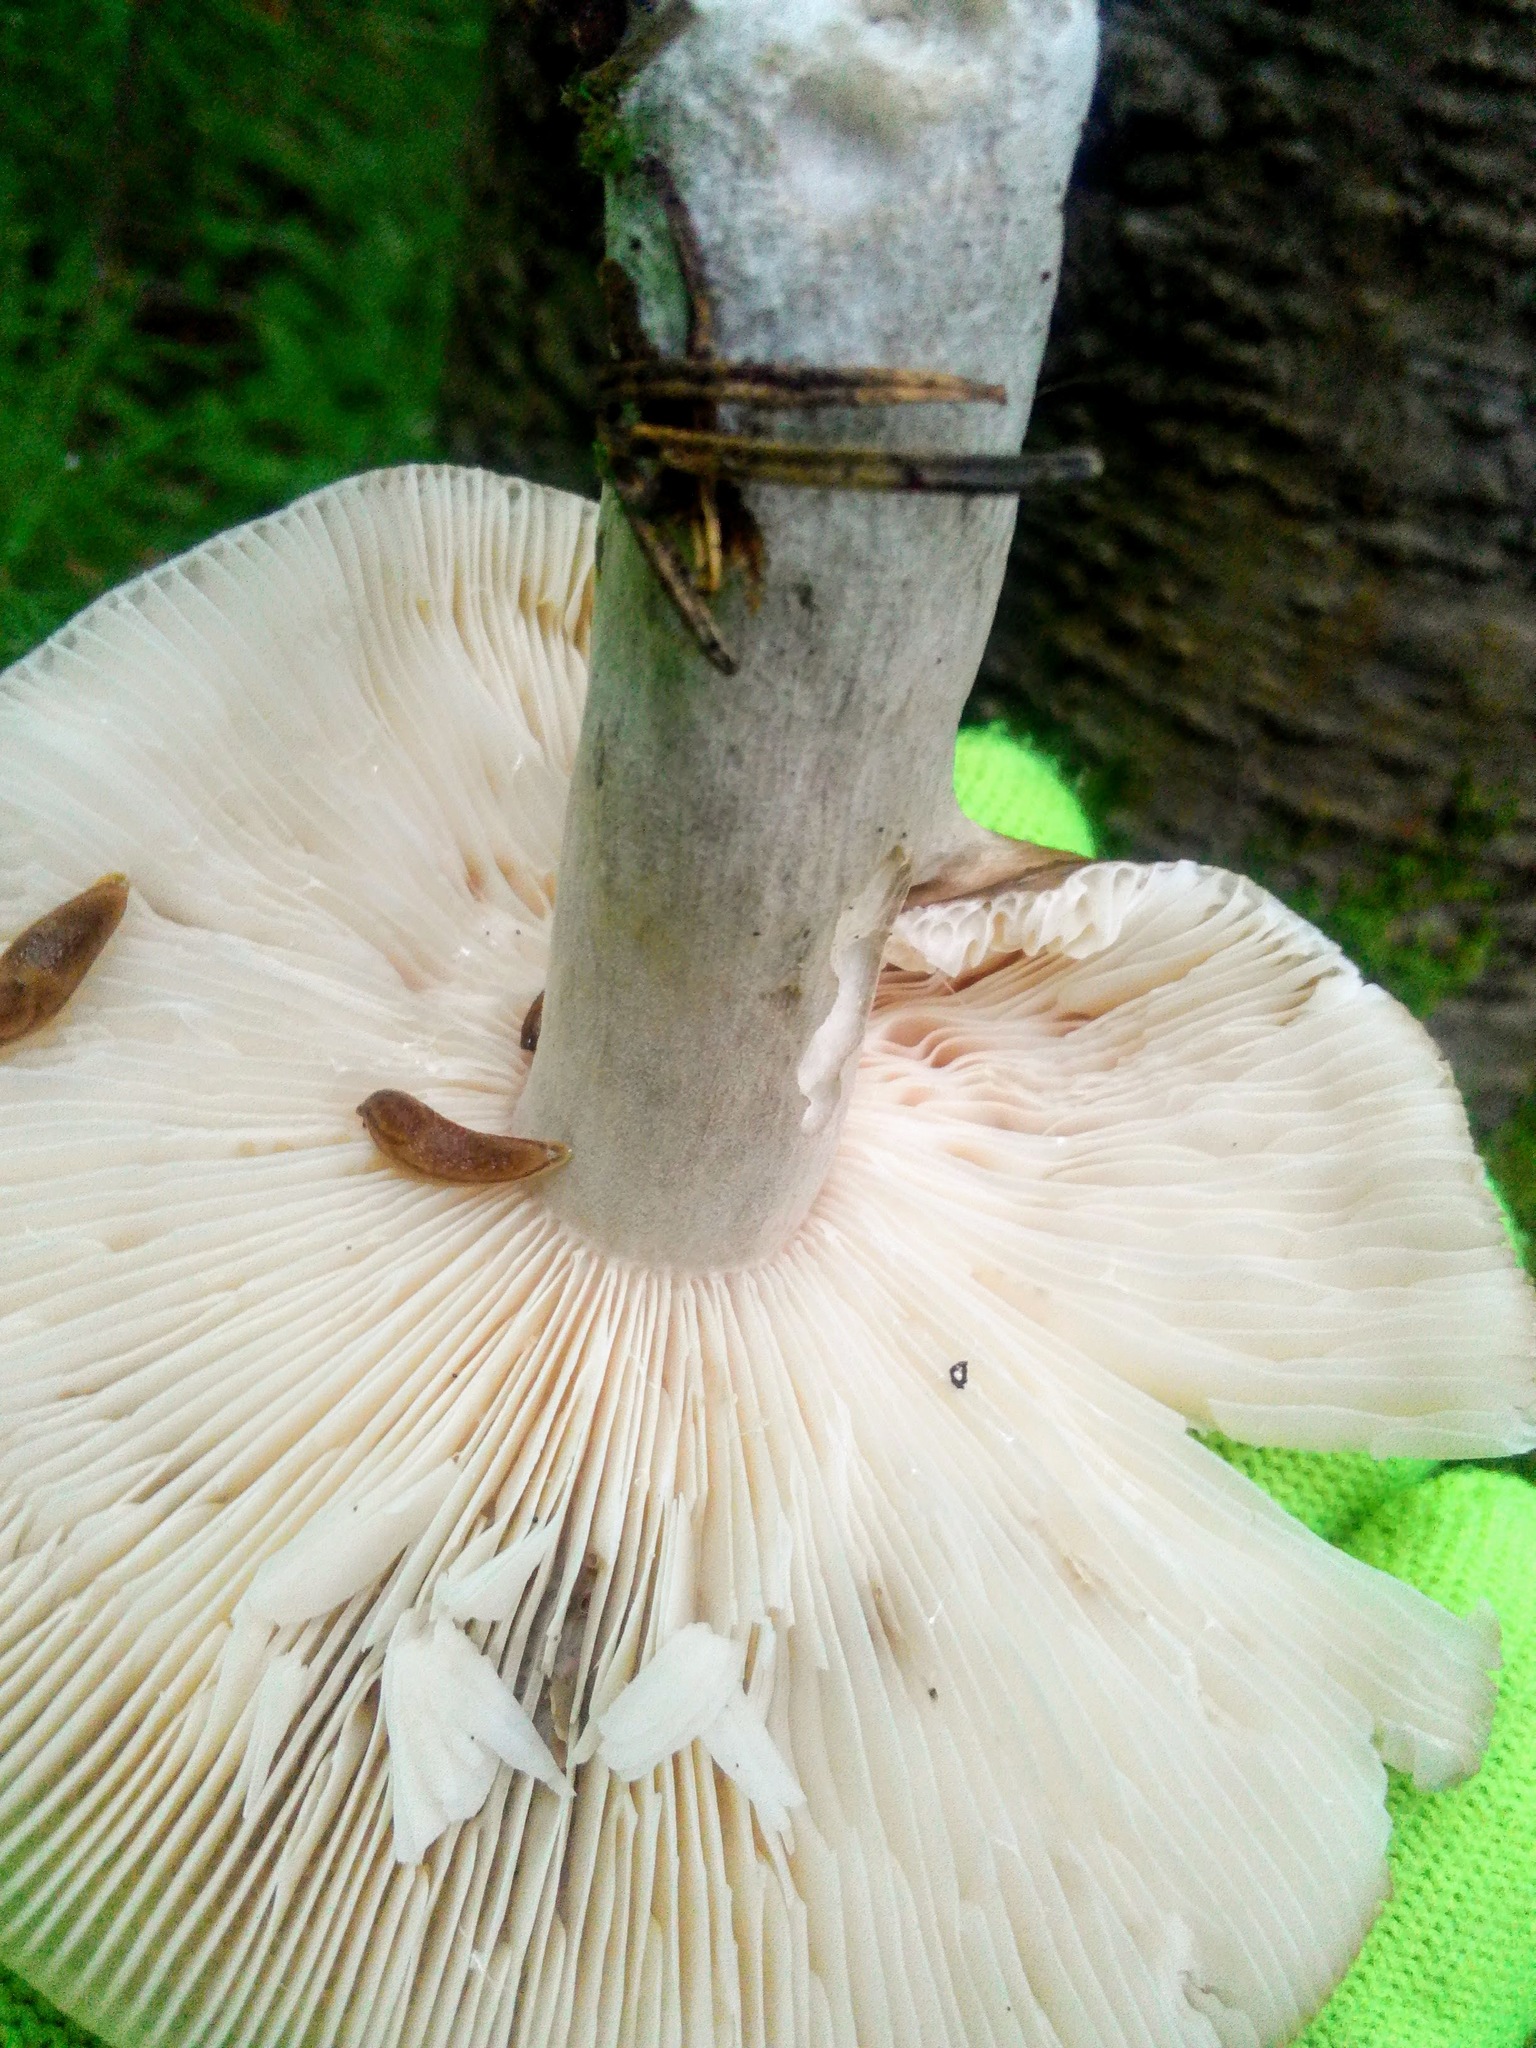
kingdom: Fungi
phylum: Basidiomycota
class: Agaricomycetes
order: Russulales
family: Russulaceae
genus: Russula
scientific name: Russula consobrina
